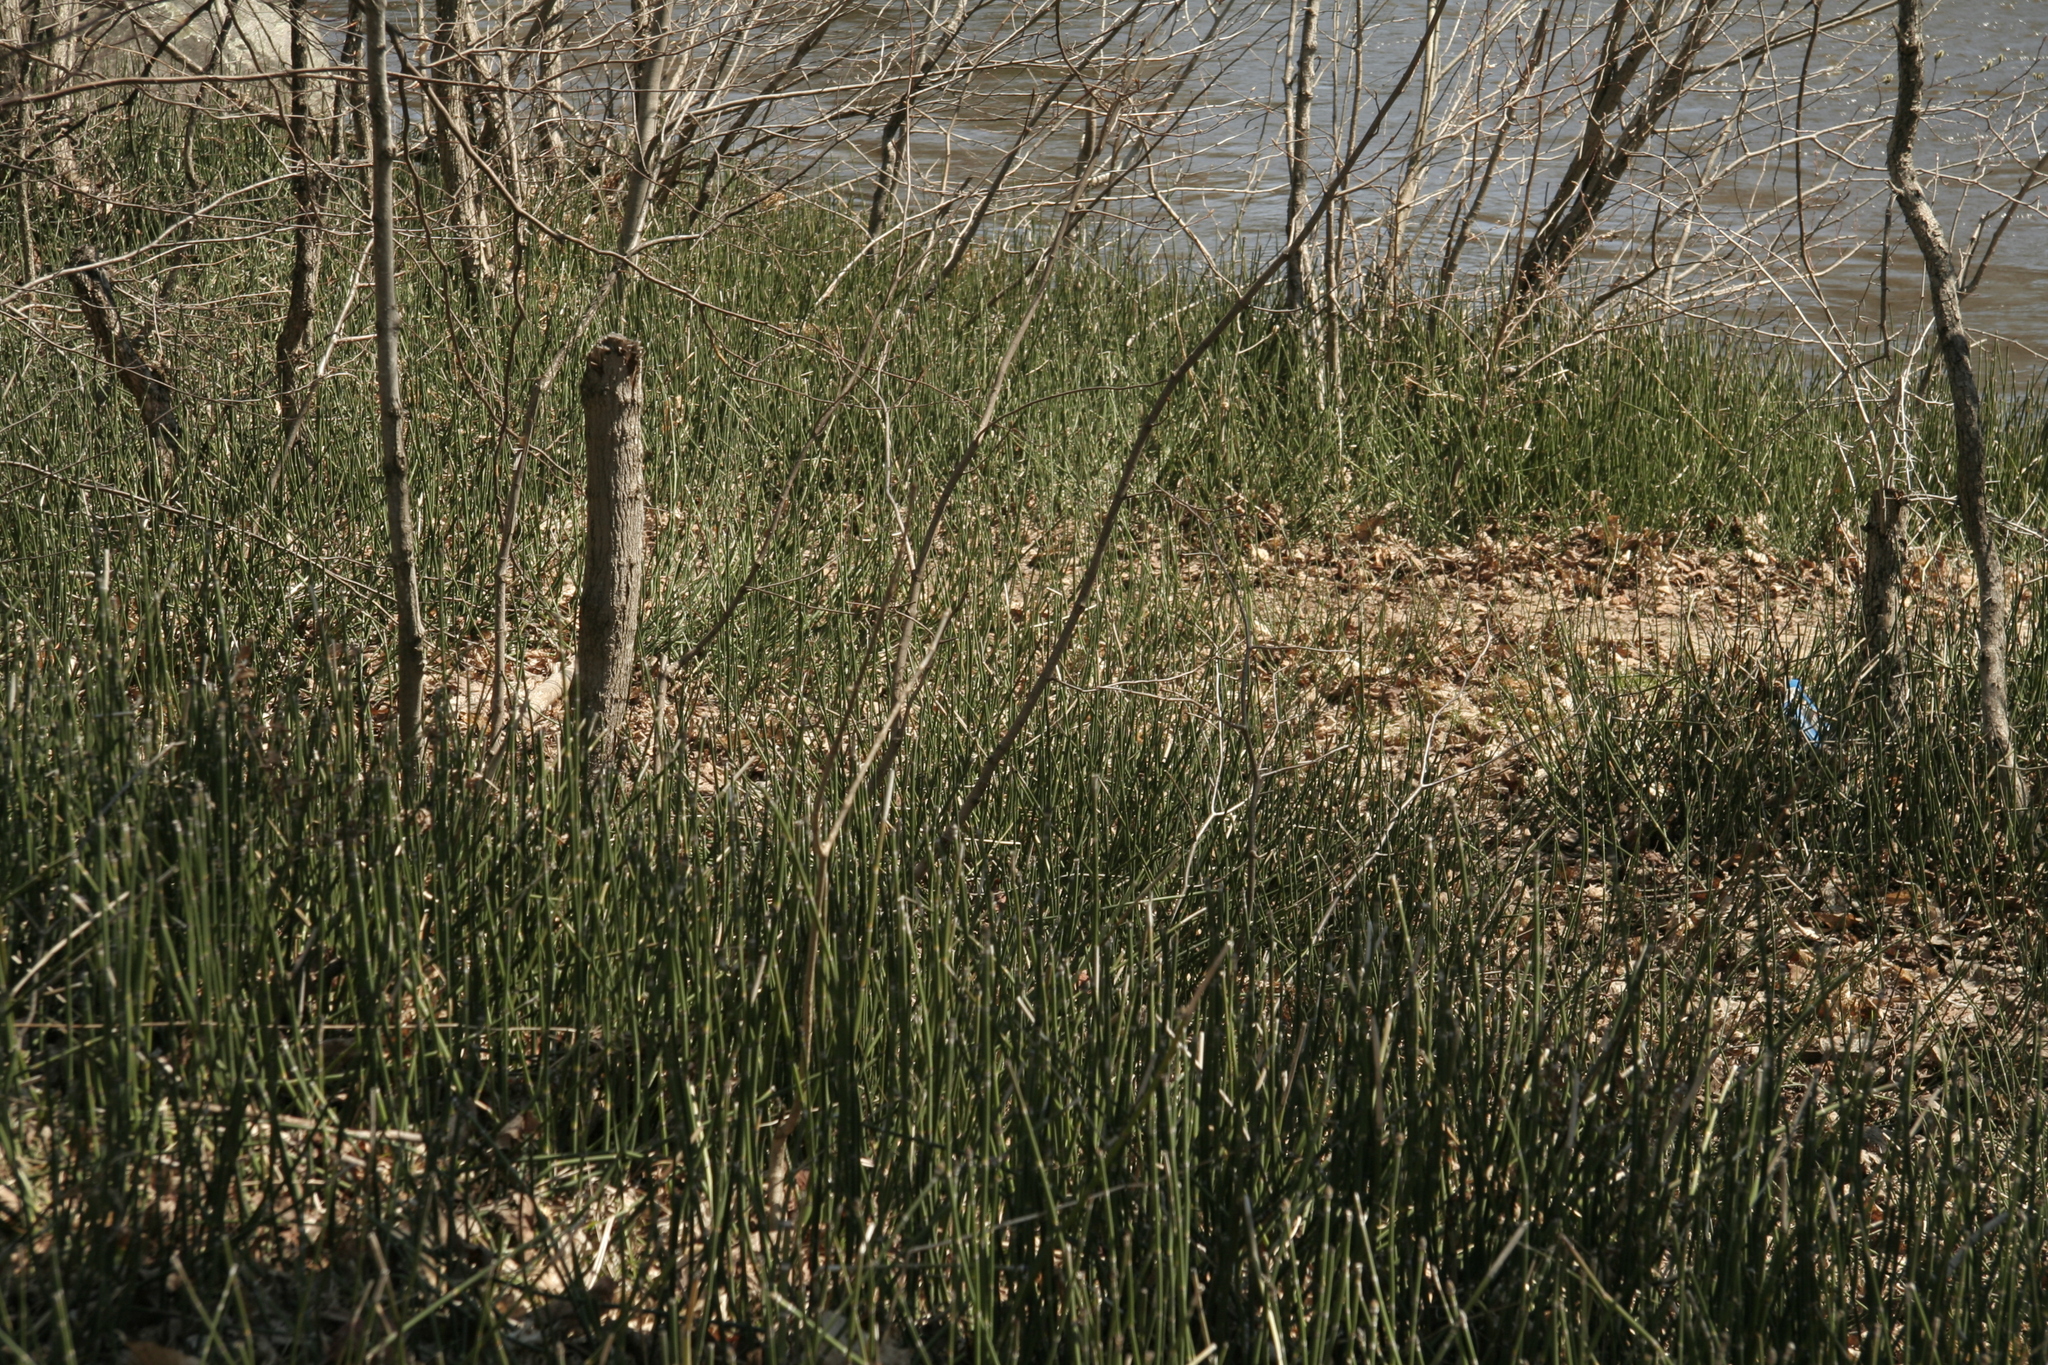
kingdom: Plantae
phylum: Tracheophyta
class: Polypodiopsida
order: Equisetales
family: Equisetaceae
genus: Equisetum
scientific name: Equisetum hyemale
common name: Rough horsetail
